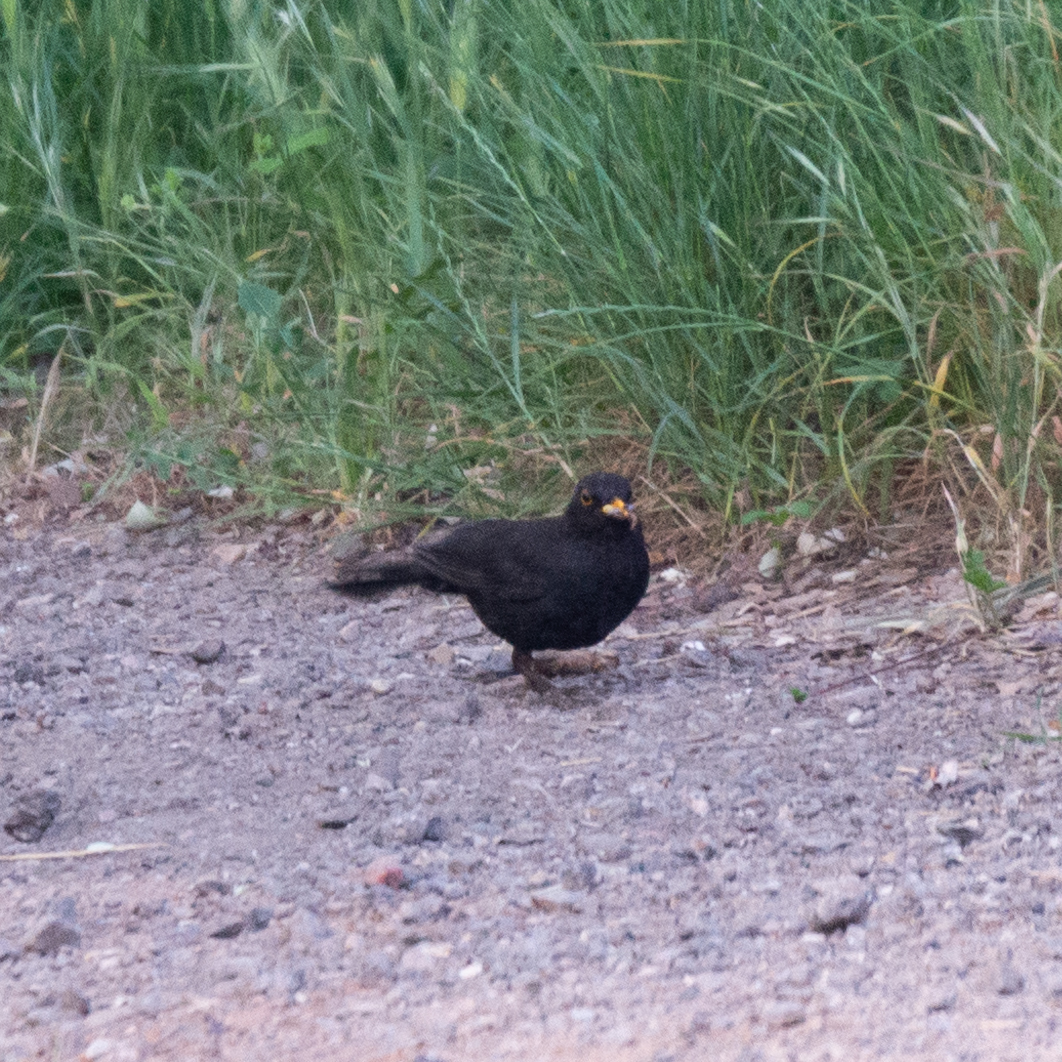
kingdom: Animalia
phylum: Chordata
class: Aves
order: Passeriformes
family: Turdidae
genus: Turdus
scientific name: Turdus merula
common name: Common blackbird
